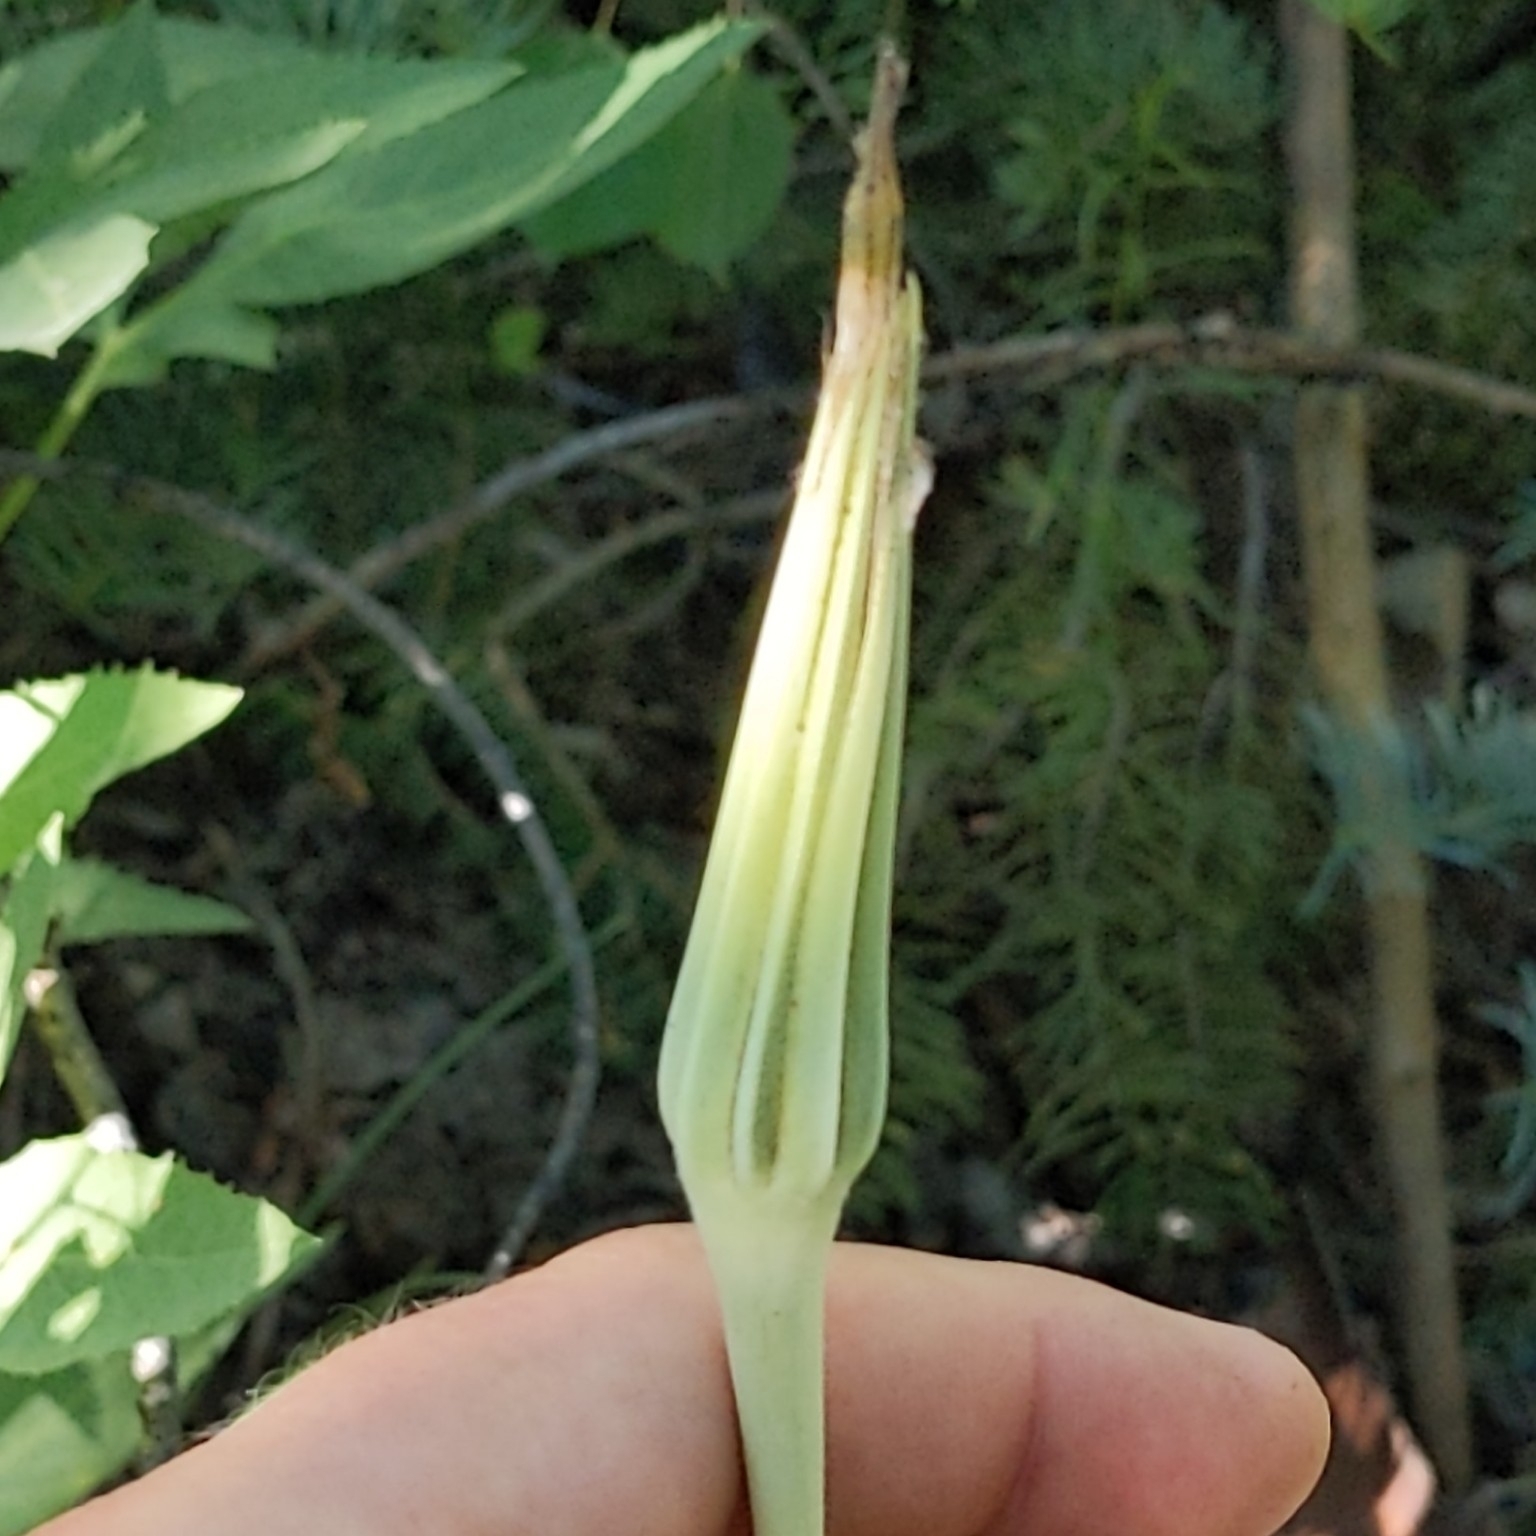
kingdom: Plantae
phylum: Tracheophyta
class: Magnoliopsida
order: Asterales
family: Asteraceae
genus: Tragopogon
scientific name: Tragopogon dubius
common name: Yellow salsify
